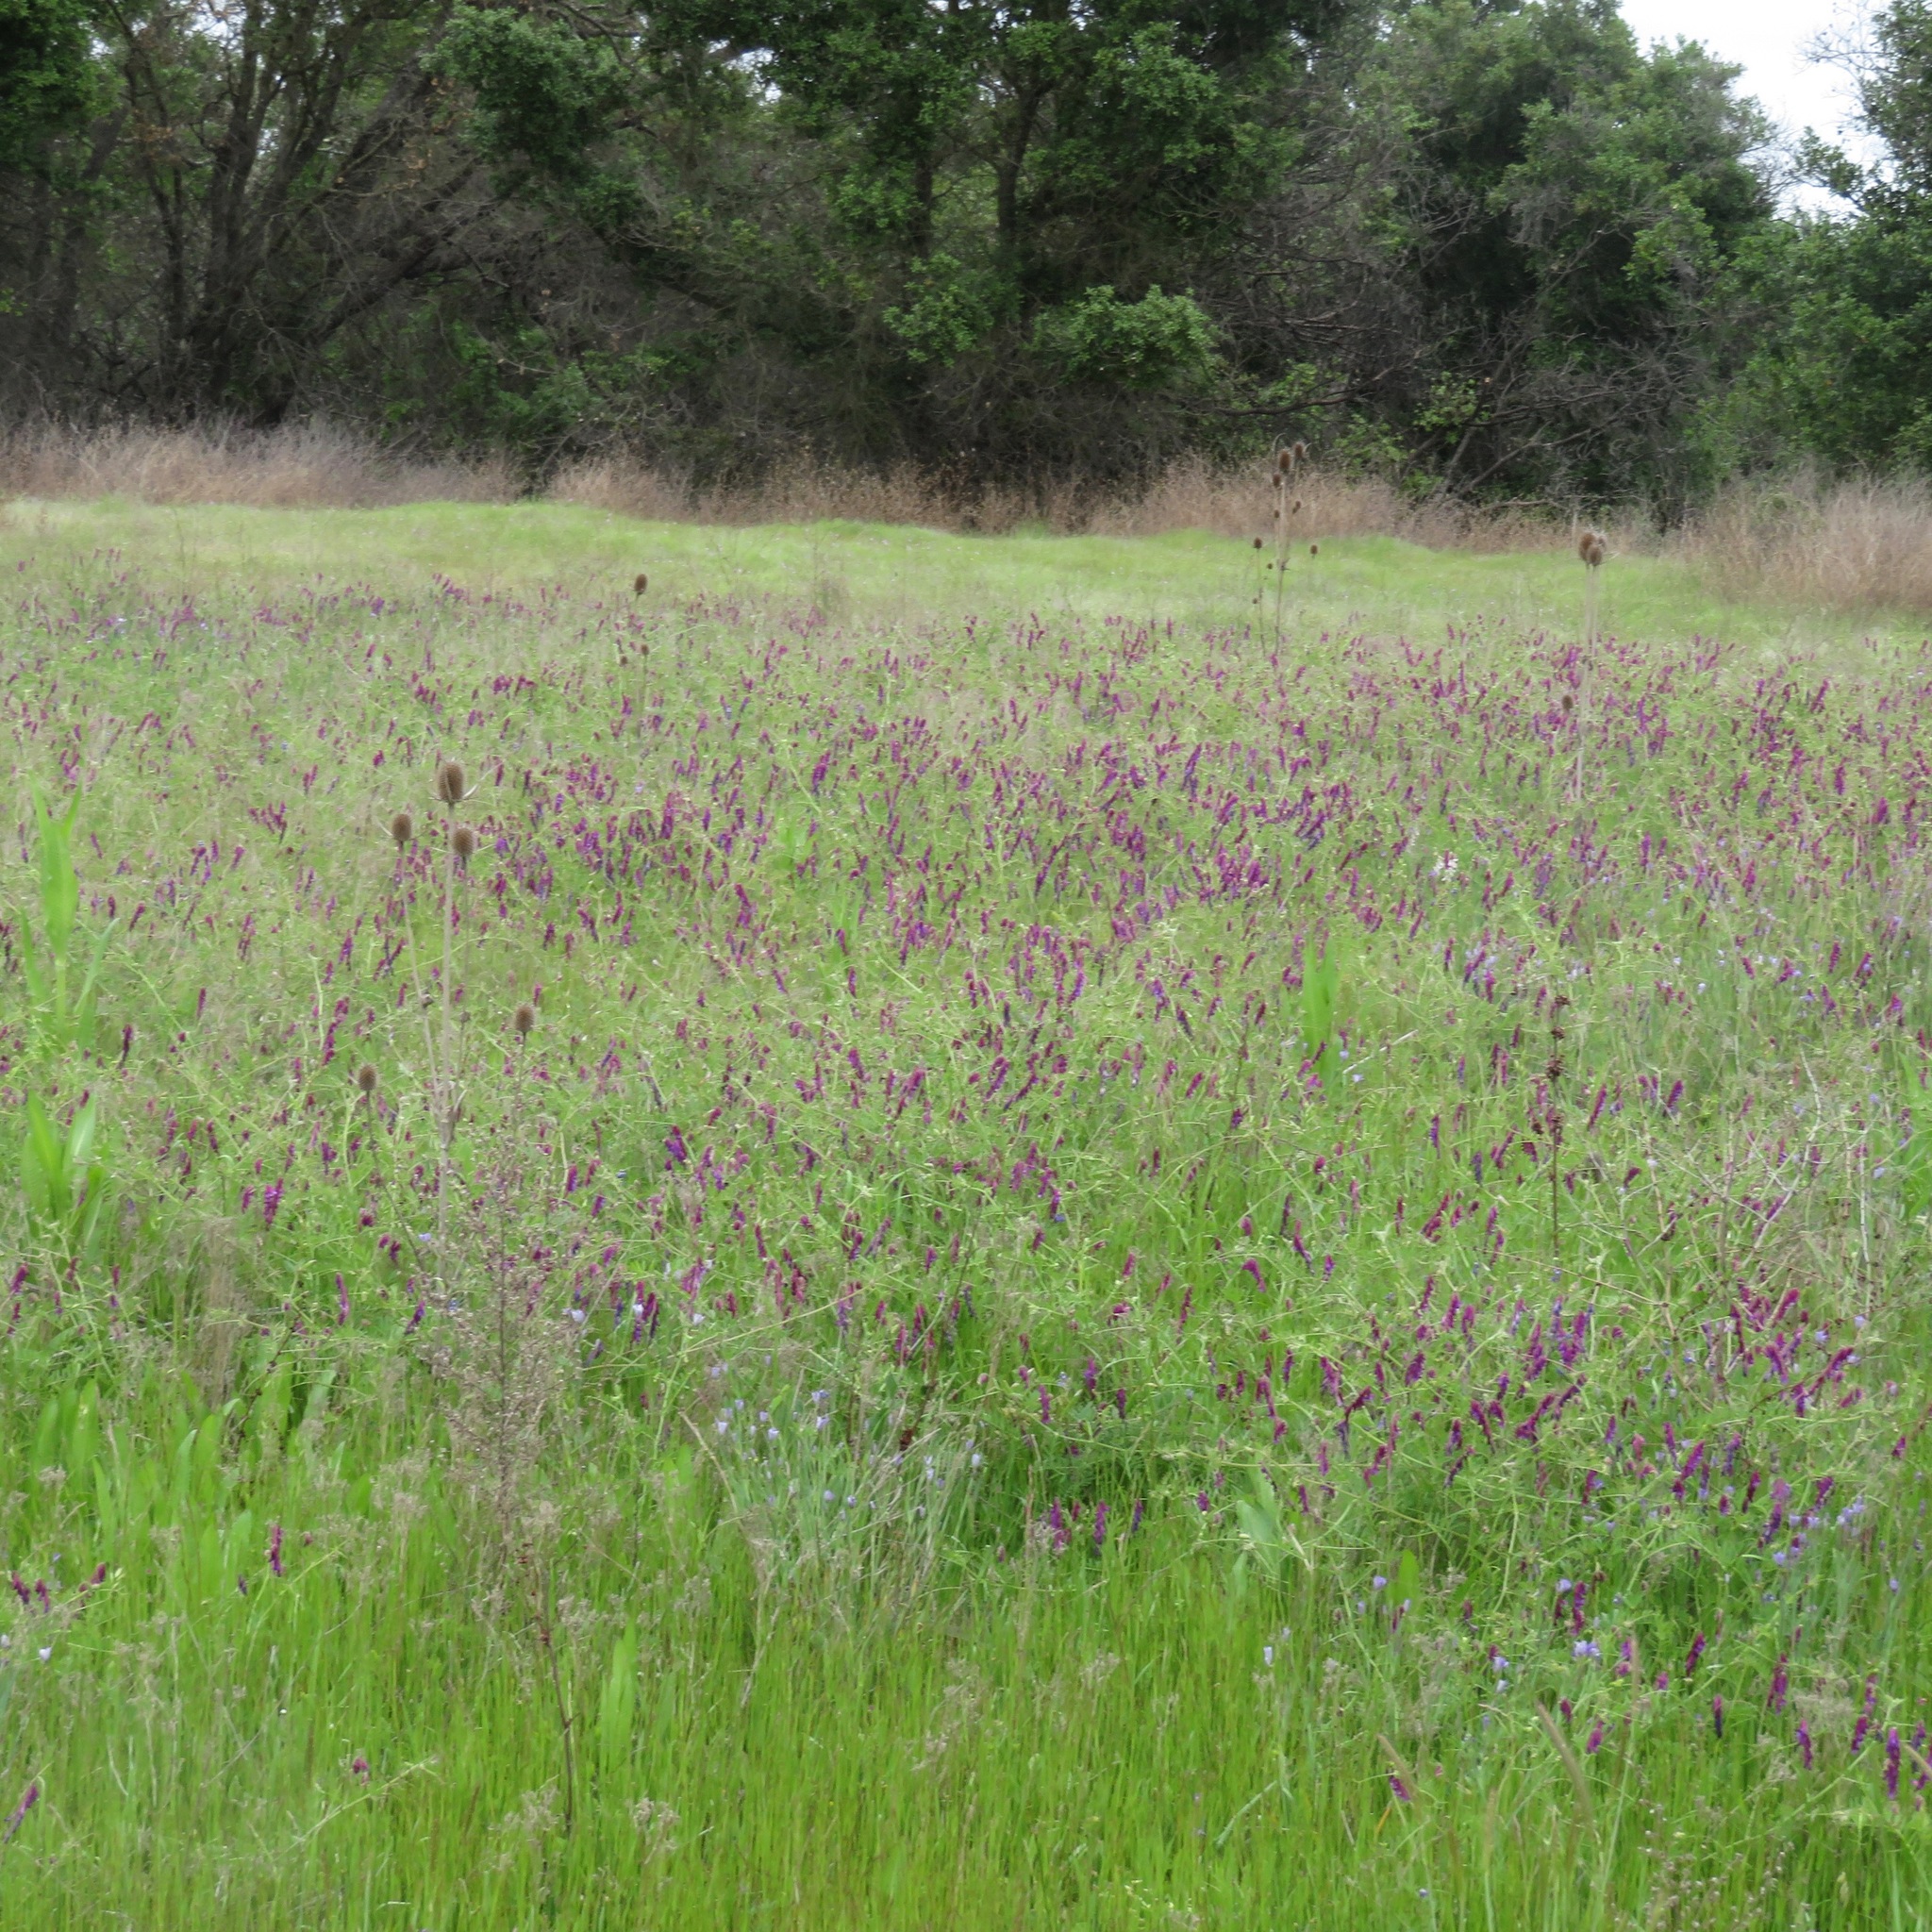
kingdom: Plantae
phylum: Tracheophyta
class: Magnoliopsida
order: Fabales
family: Fabaceae
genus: Vicia
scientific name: Vicia villosa
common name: Fodder vetch
